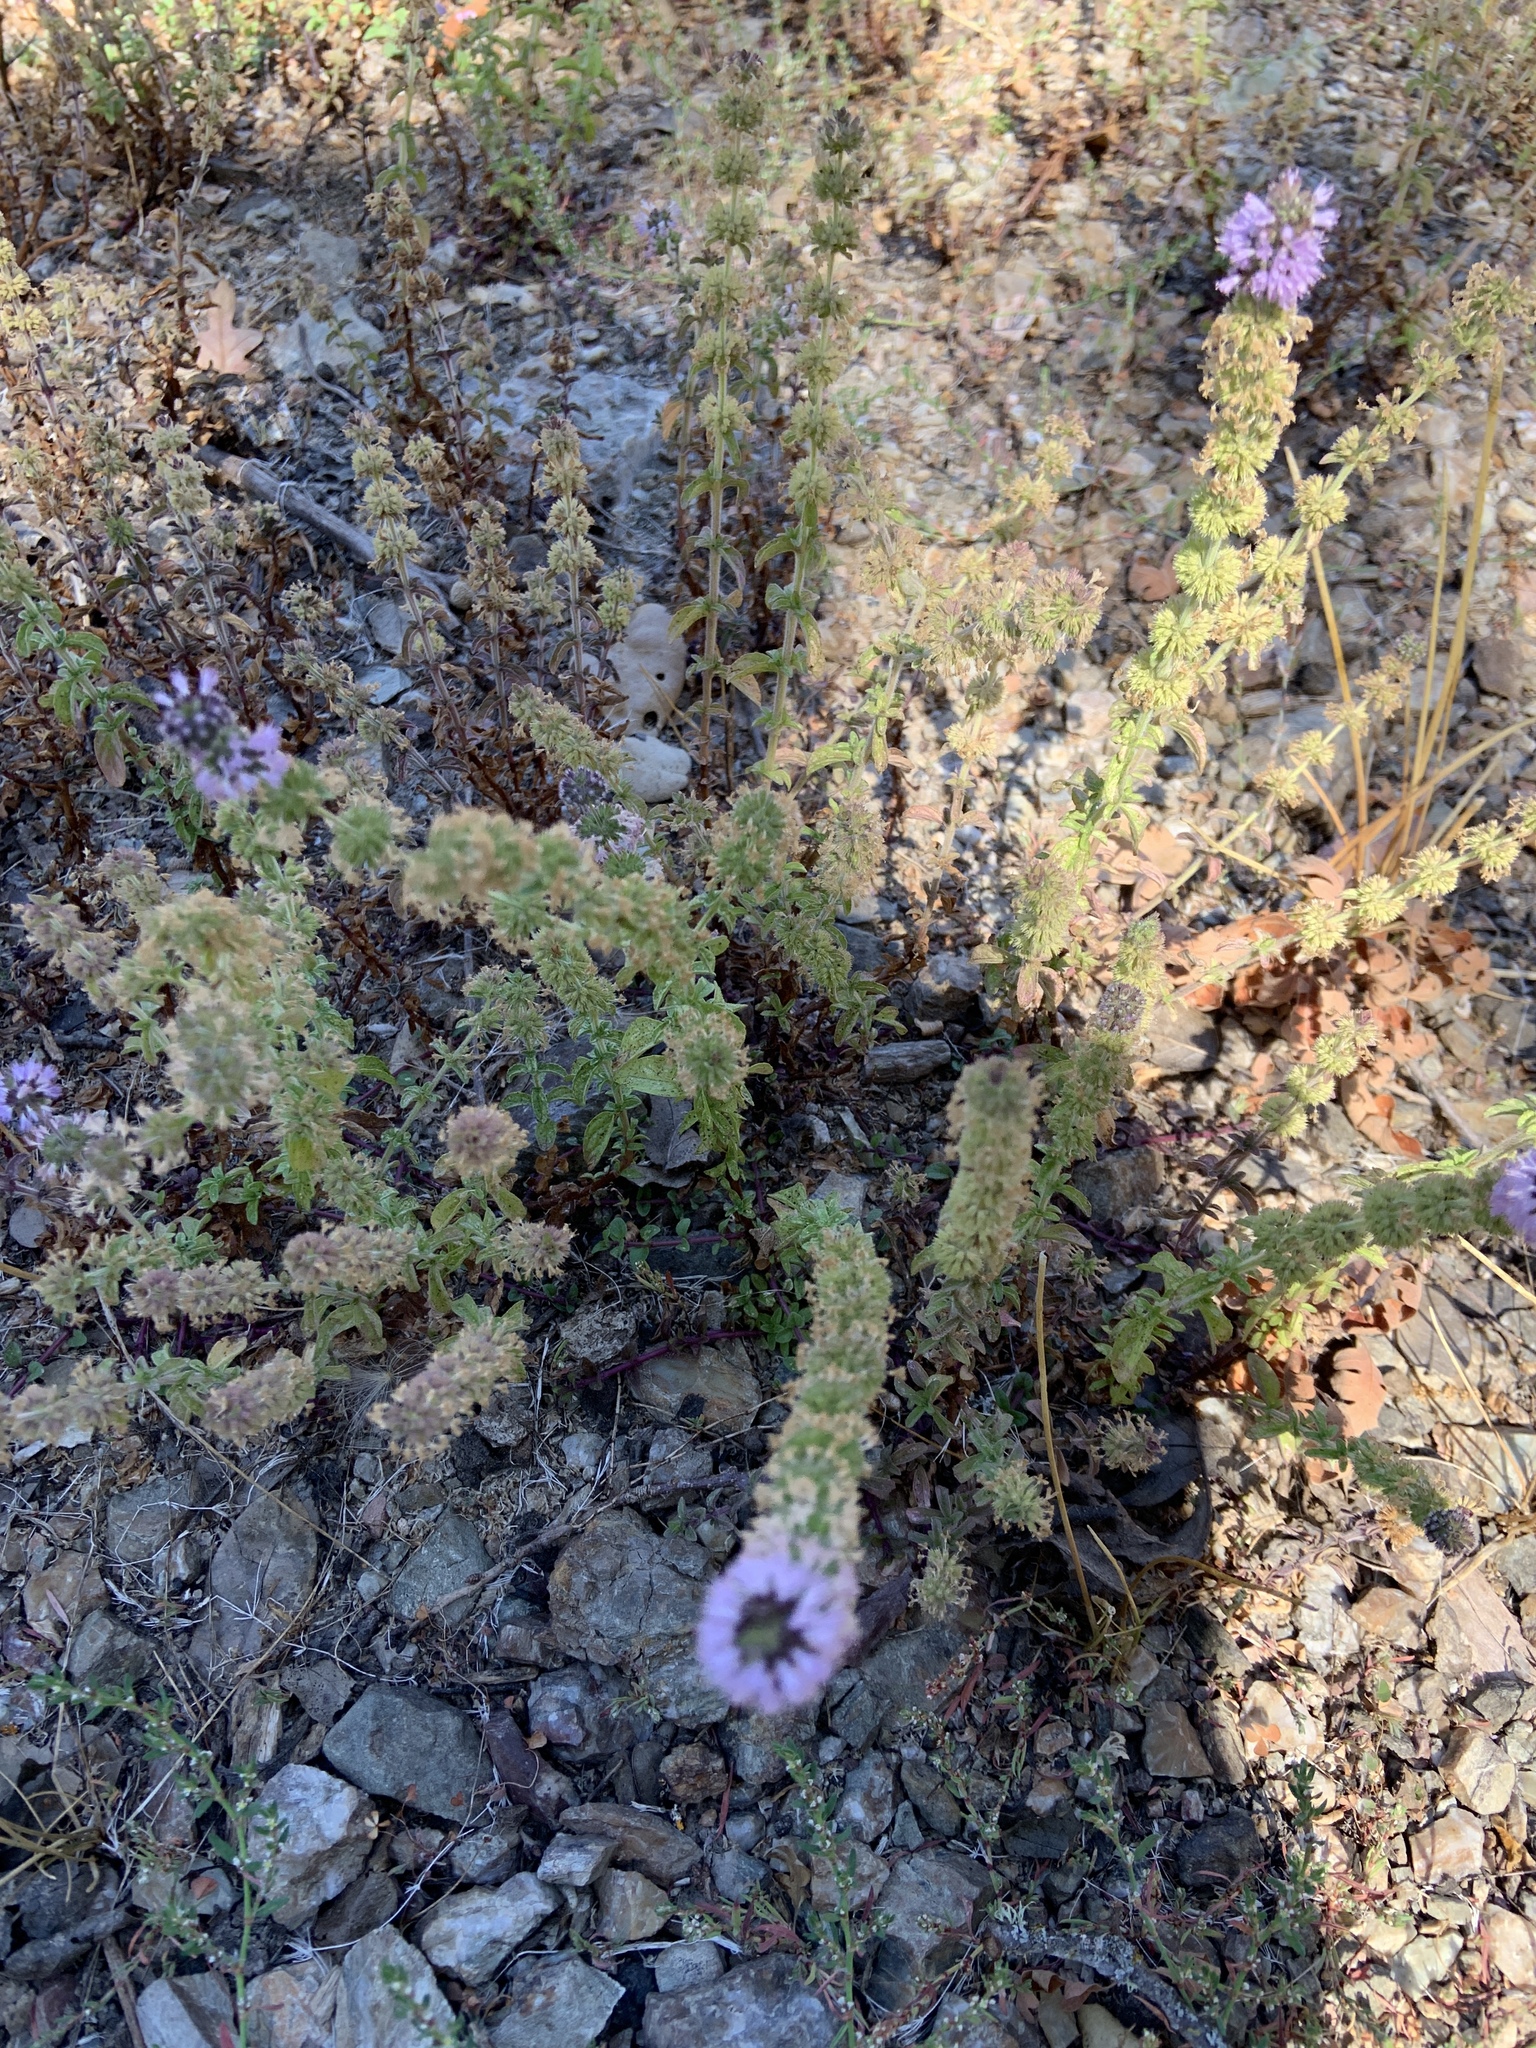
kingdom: Plantae
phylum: Tracheophyta
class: Magnoliopsida
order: Lamiales
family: Lamiaceae
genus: Mentha
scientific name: Mentha pulegium
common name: Pennyroyal
